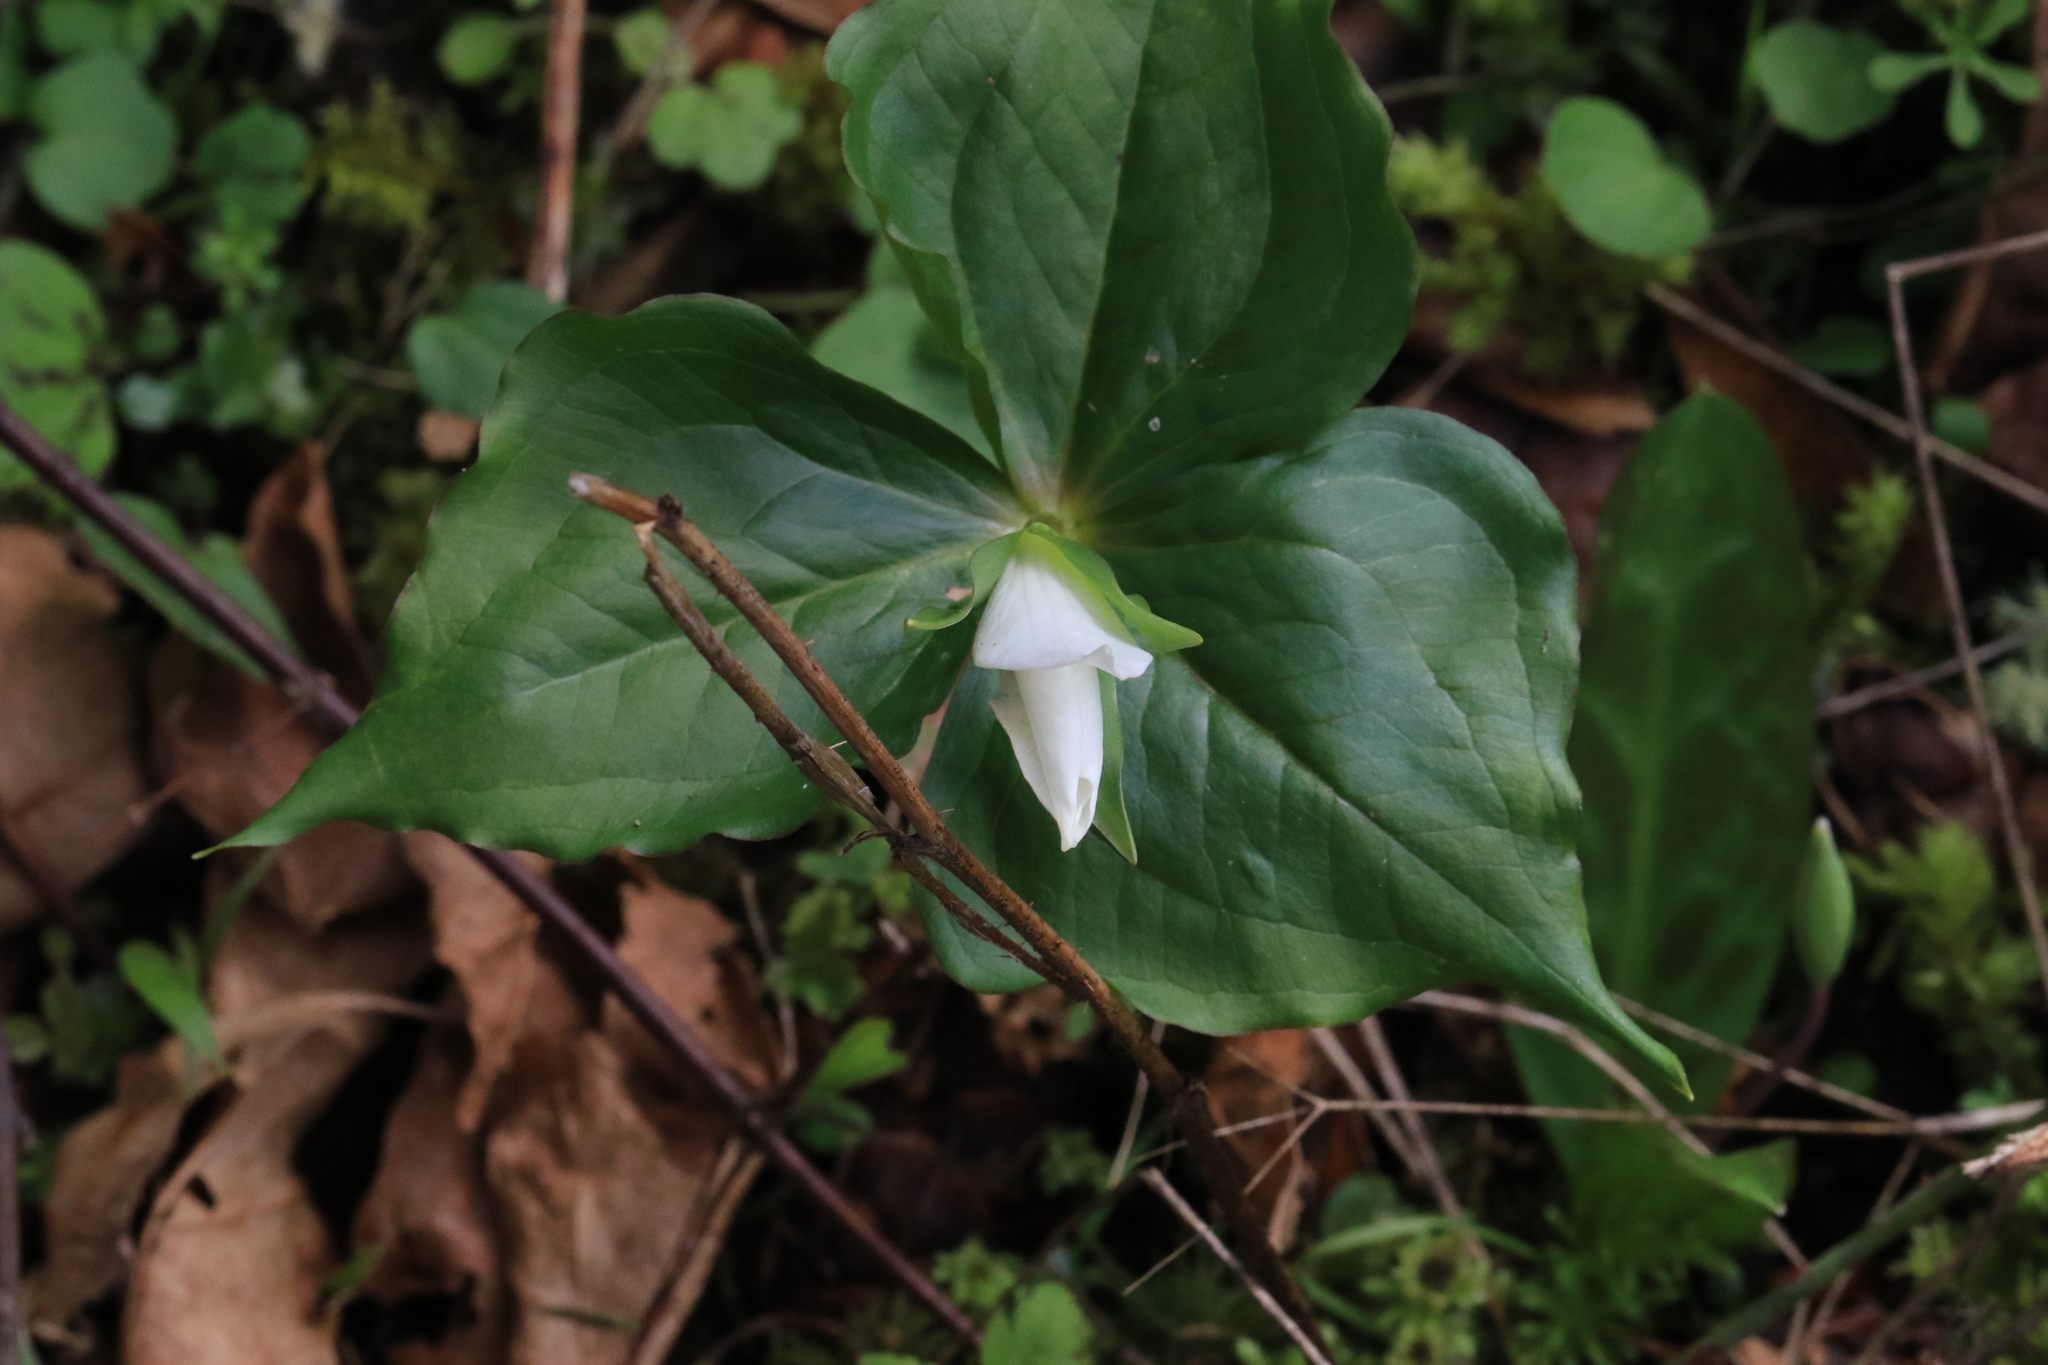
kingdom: Plantae
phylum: Tracheophyta
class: Liliopsida
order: Liliales
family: Melanthiaceae
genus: Trillium
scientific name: Trillium ovatum
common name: Pacific trillium
